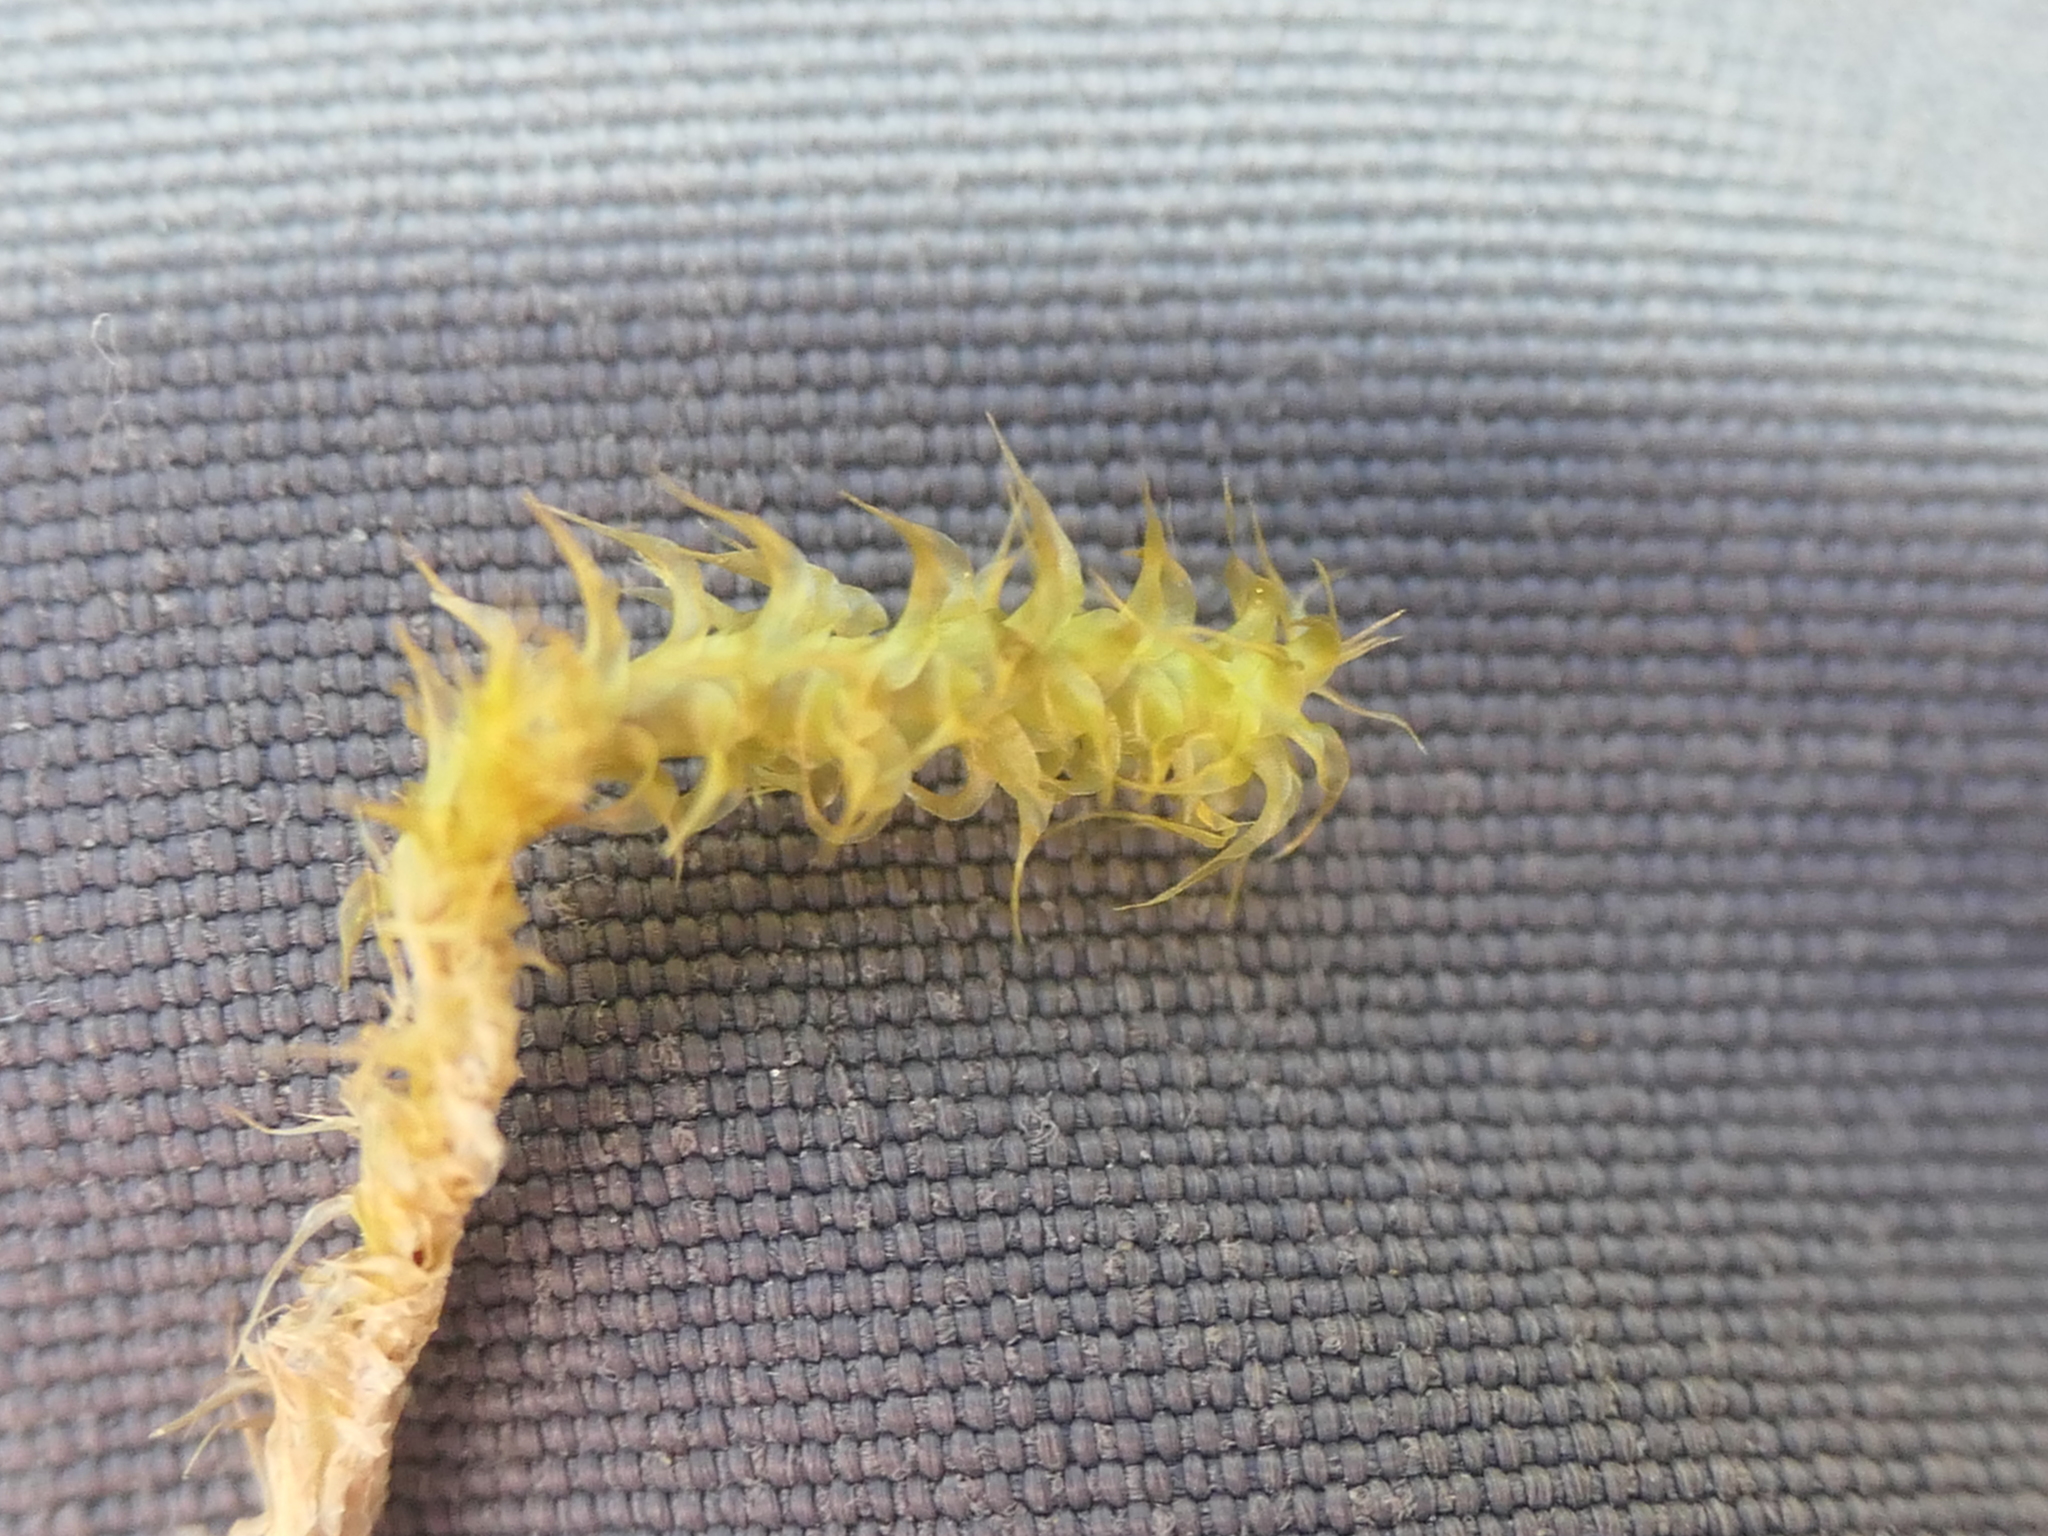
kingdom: Plantae
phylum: Bryophyta
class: Bryopsida
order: Hypnales
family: Hylocomiaceae
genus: Rhytidiadelphus
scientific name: Rhytidiadelphus squarrosus
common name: Springy turf-moss
